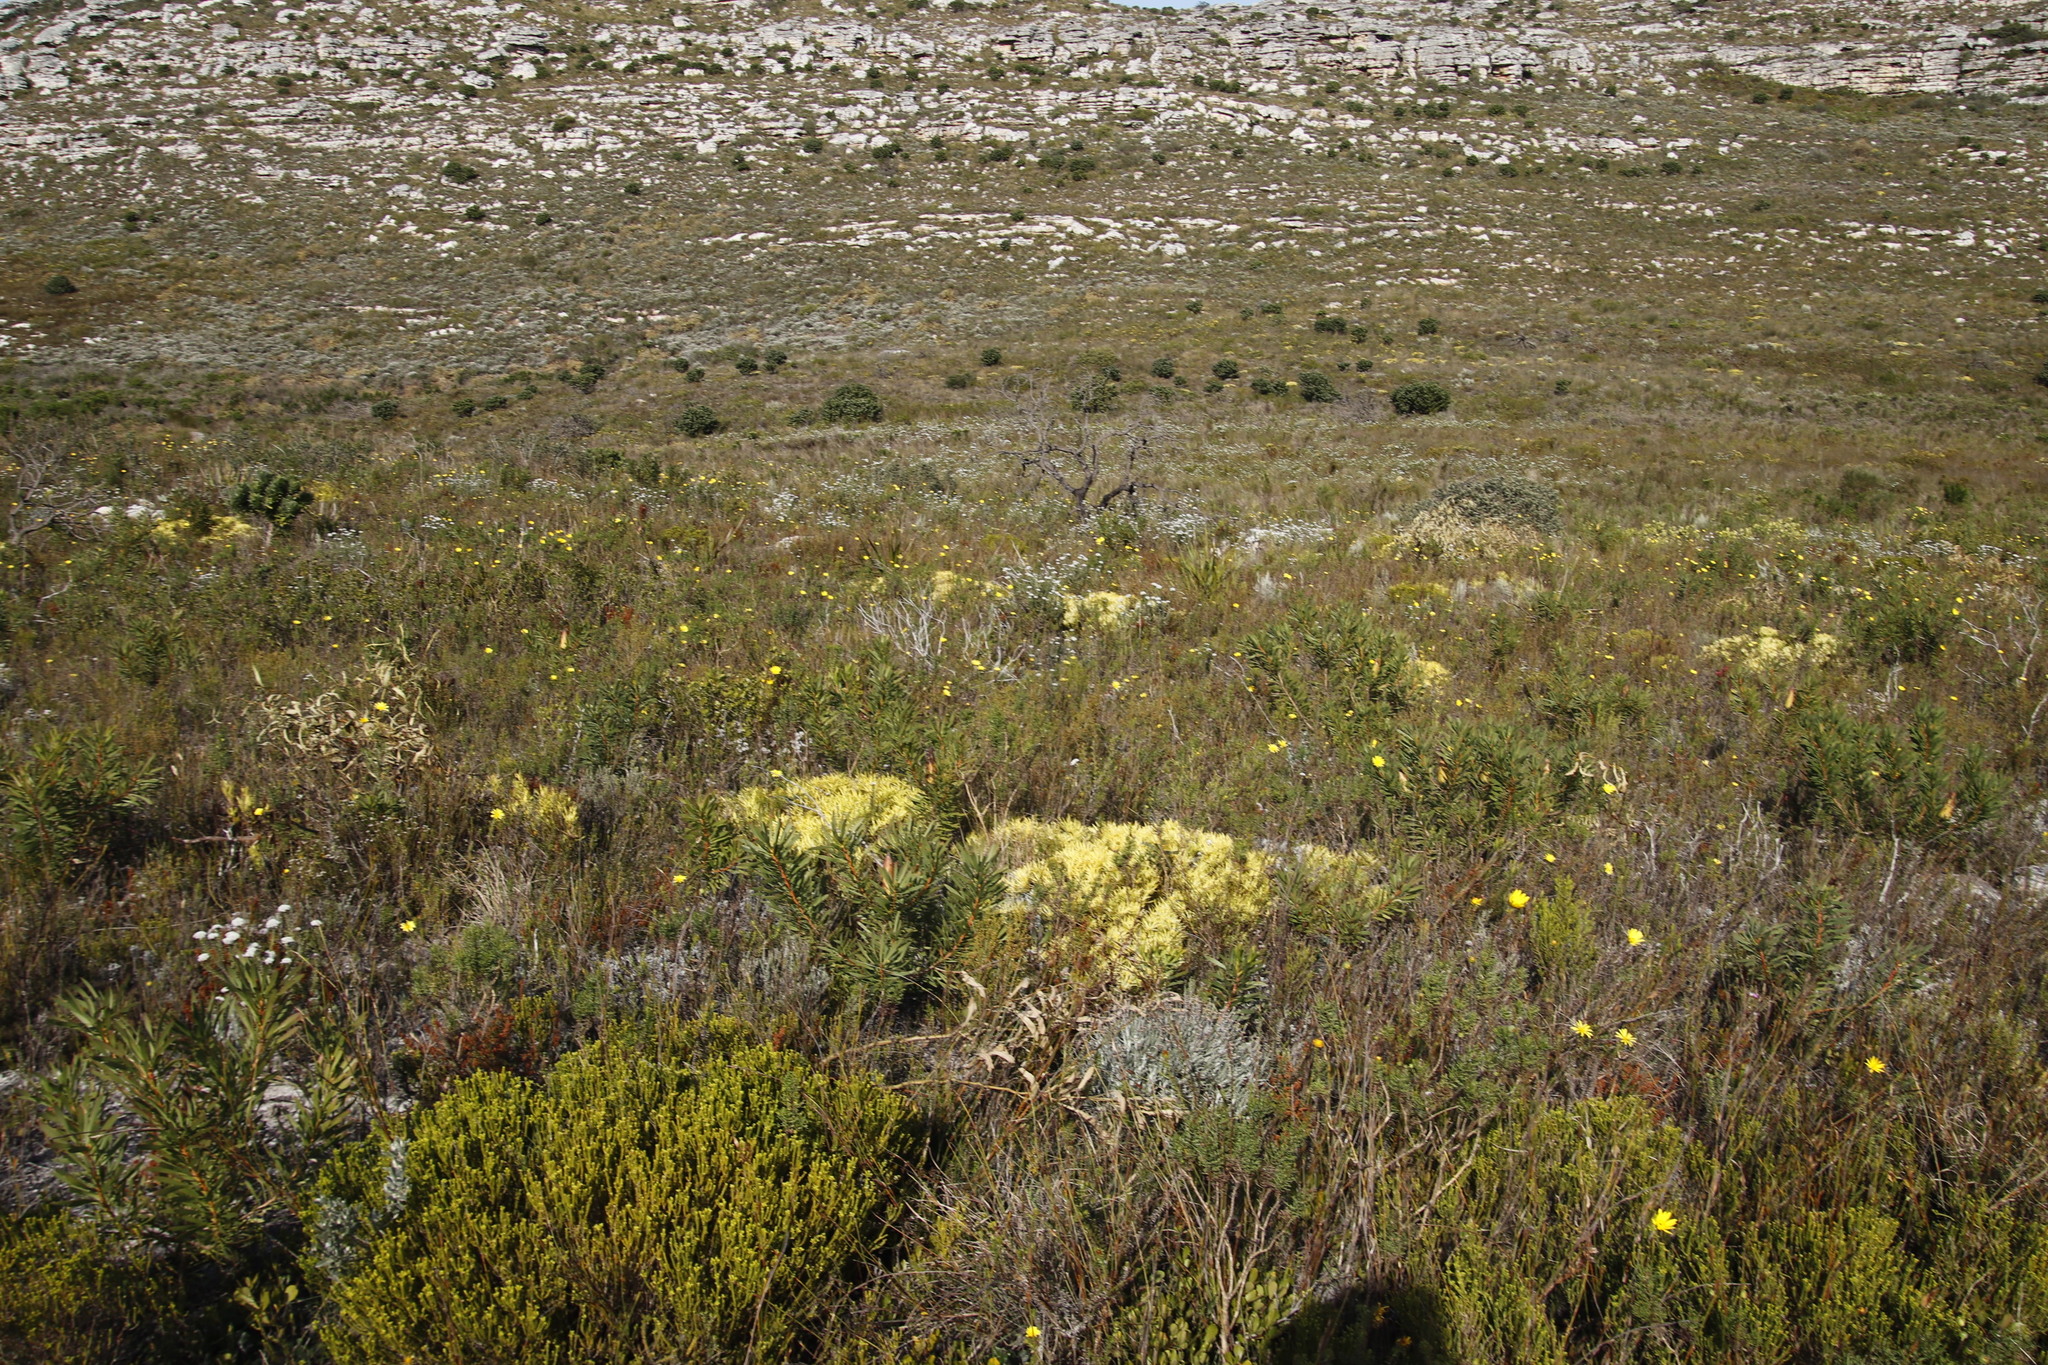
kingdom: Plantae
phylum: Tracheophyta
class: Magnoliopsida
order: Proteales
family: Proteaceae
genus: Leucadendron
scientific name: Leucadendron salignum
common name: Common sunshine conebush
